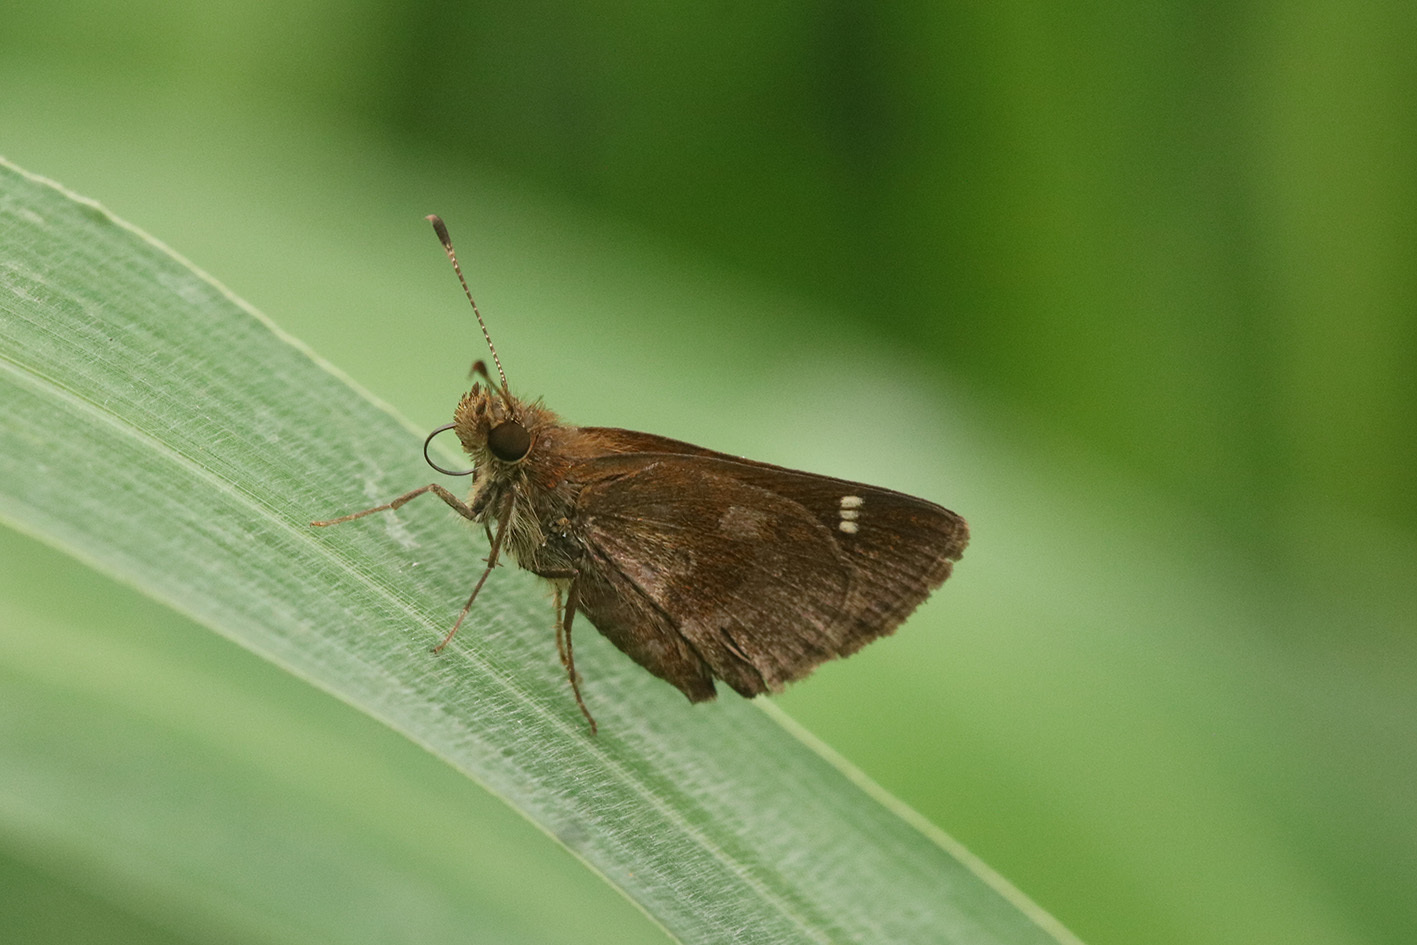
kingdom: Animalia
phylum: Arthropoda
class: Insecta
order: Lepidoptera
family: Hesperiidae
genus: Cymaenes
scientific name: Cymaenes
